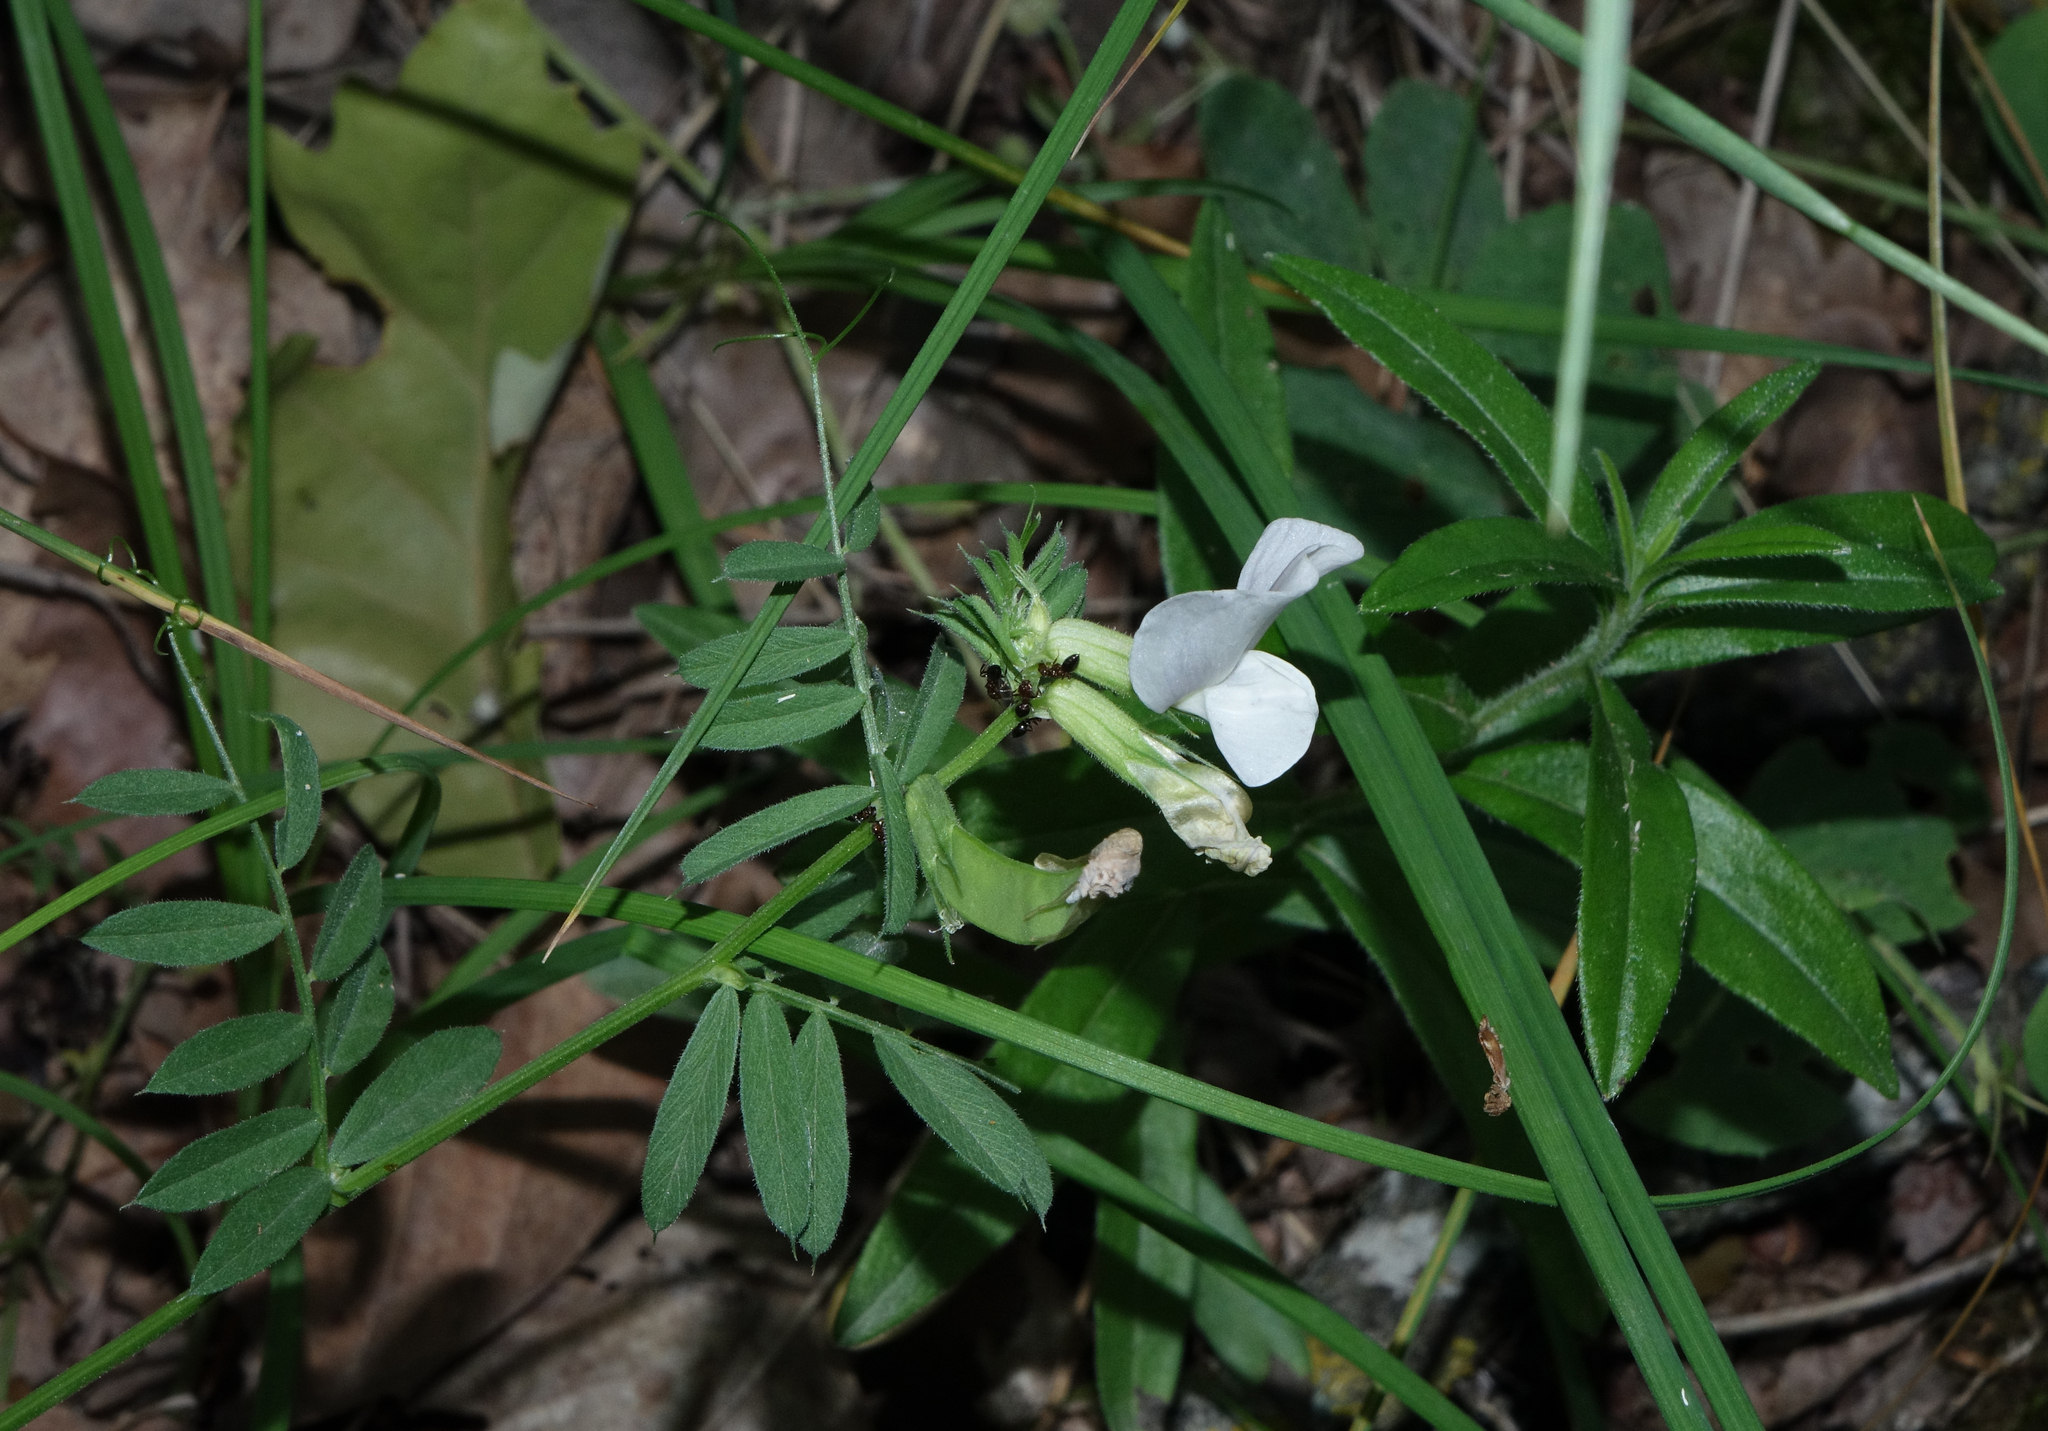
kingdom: Plantae
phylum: Tracheophyta
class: Magnoliopsida
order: Fabales
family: Fabaceae
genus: Vicia
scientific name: Vicia grandiflora
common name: Large yellow vetch
